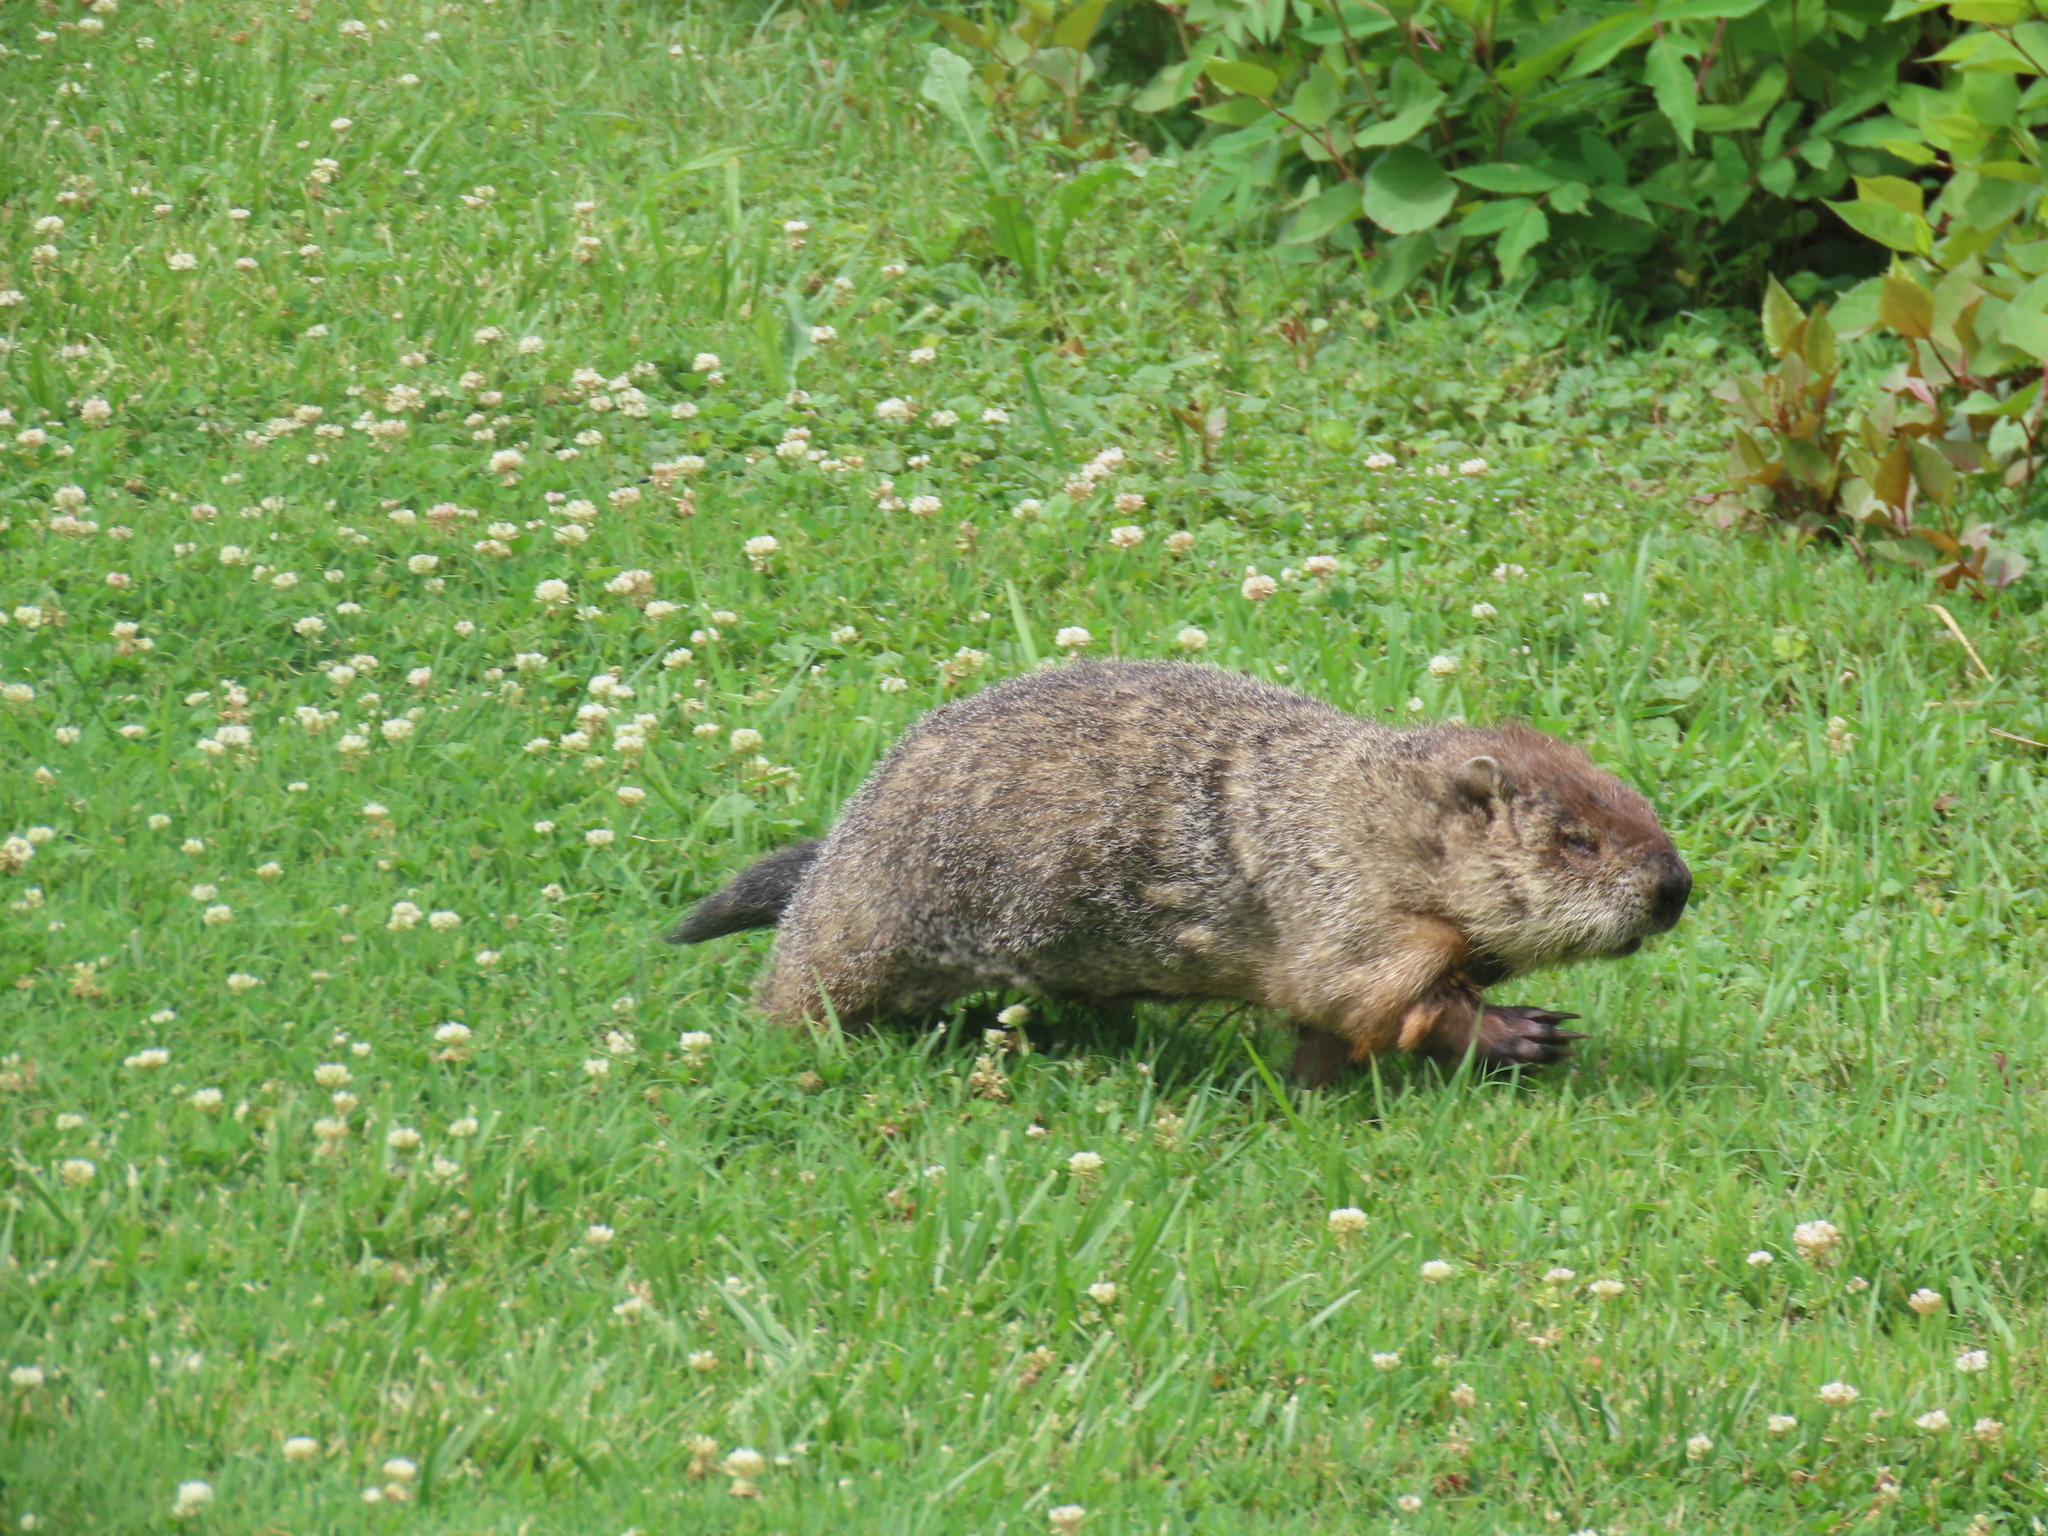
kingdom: Animalia
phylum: Chordata
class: Mammalia
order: Rodentia
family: Sciuridae
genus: Marmota
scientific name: Marmota monax
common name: Groundhog
